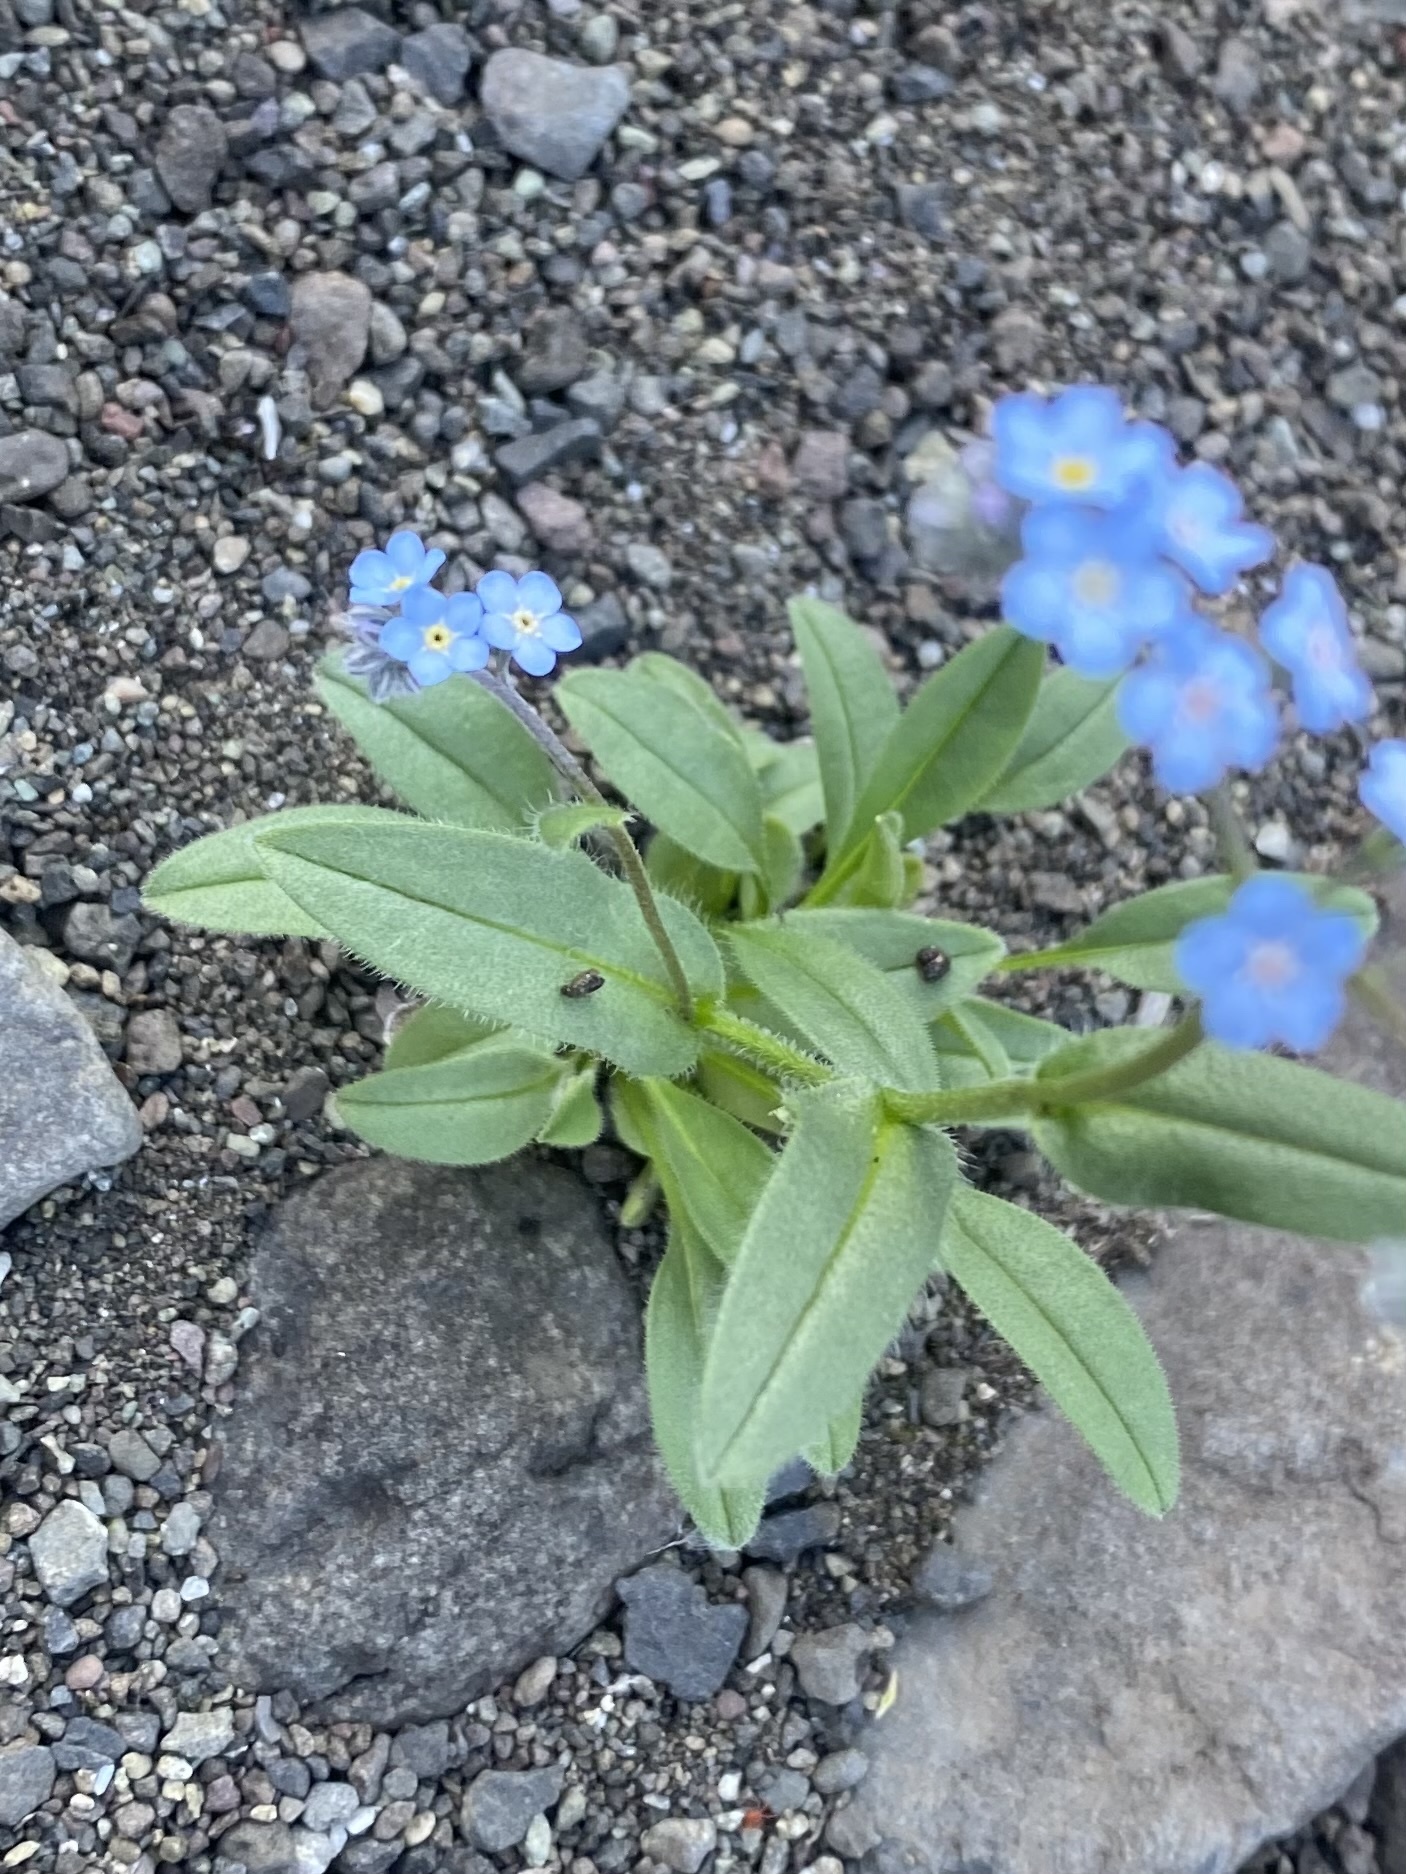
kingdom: Plantae
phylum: Tracheophyta
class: Magnoliopsida
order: Boraginales
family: Boraginaceae
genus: Myosotis
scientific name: Myosotis asiatica
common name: Asian forget-me-not
